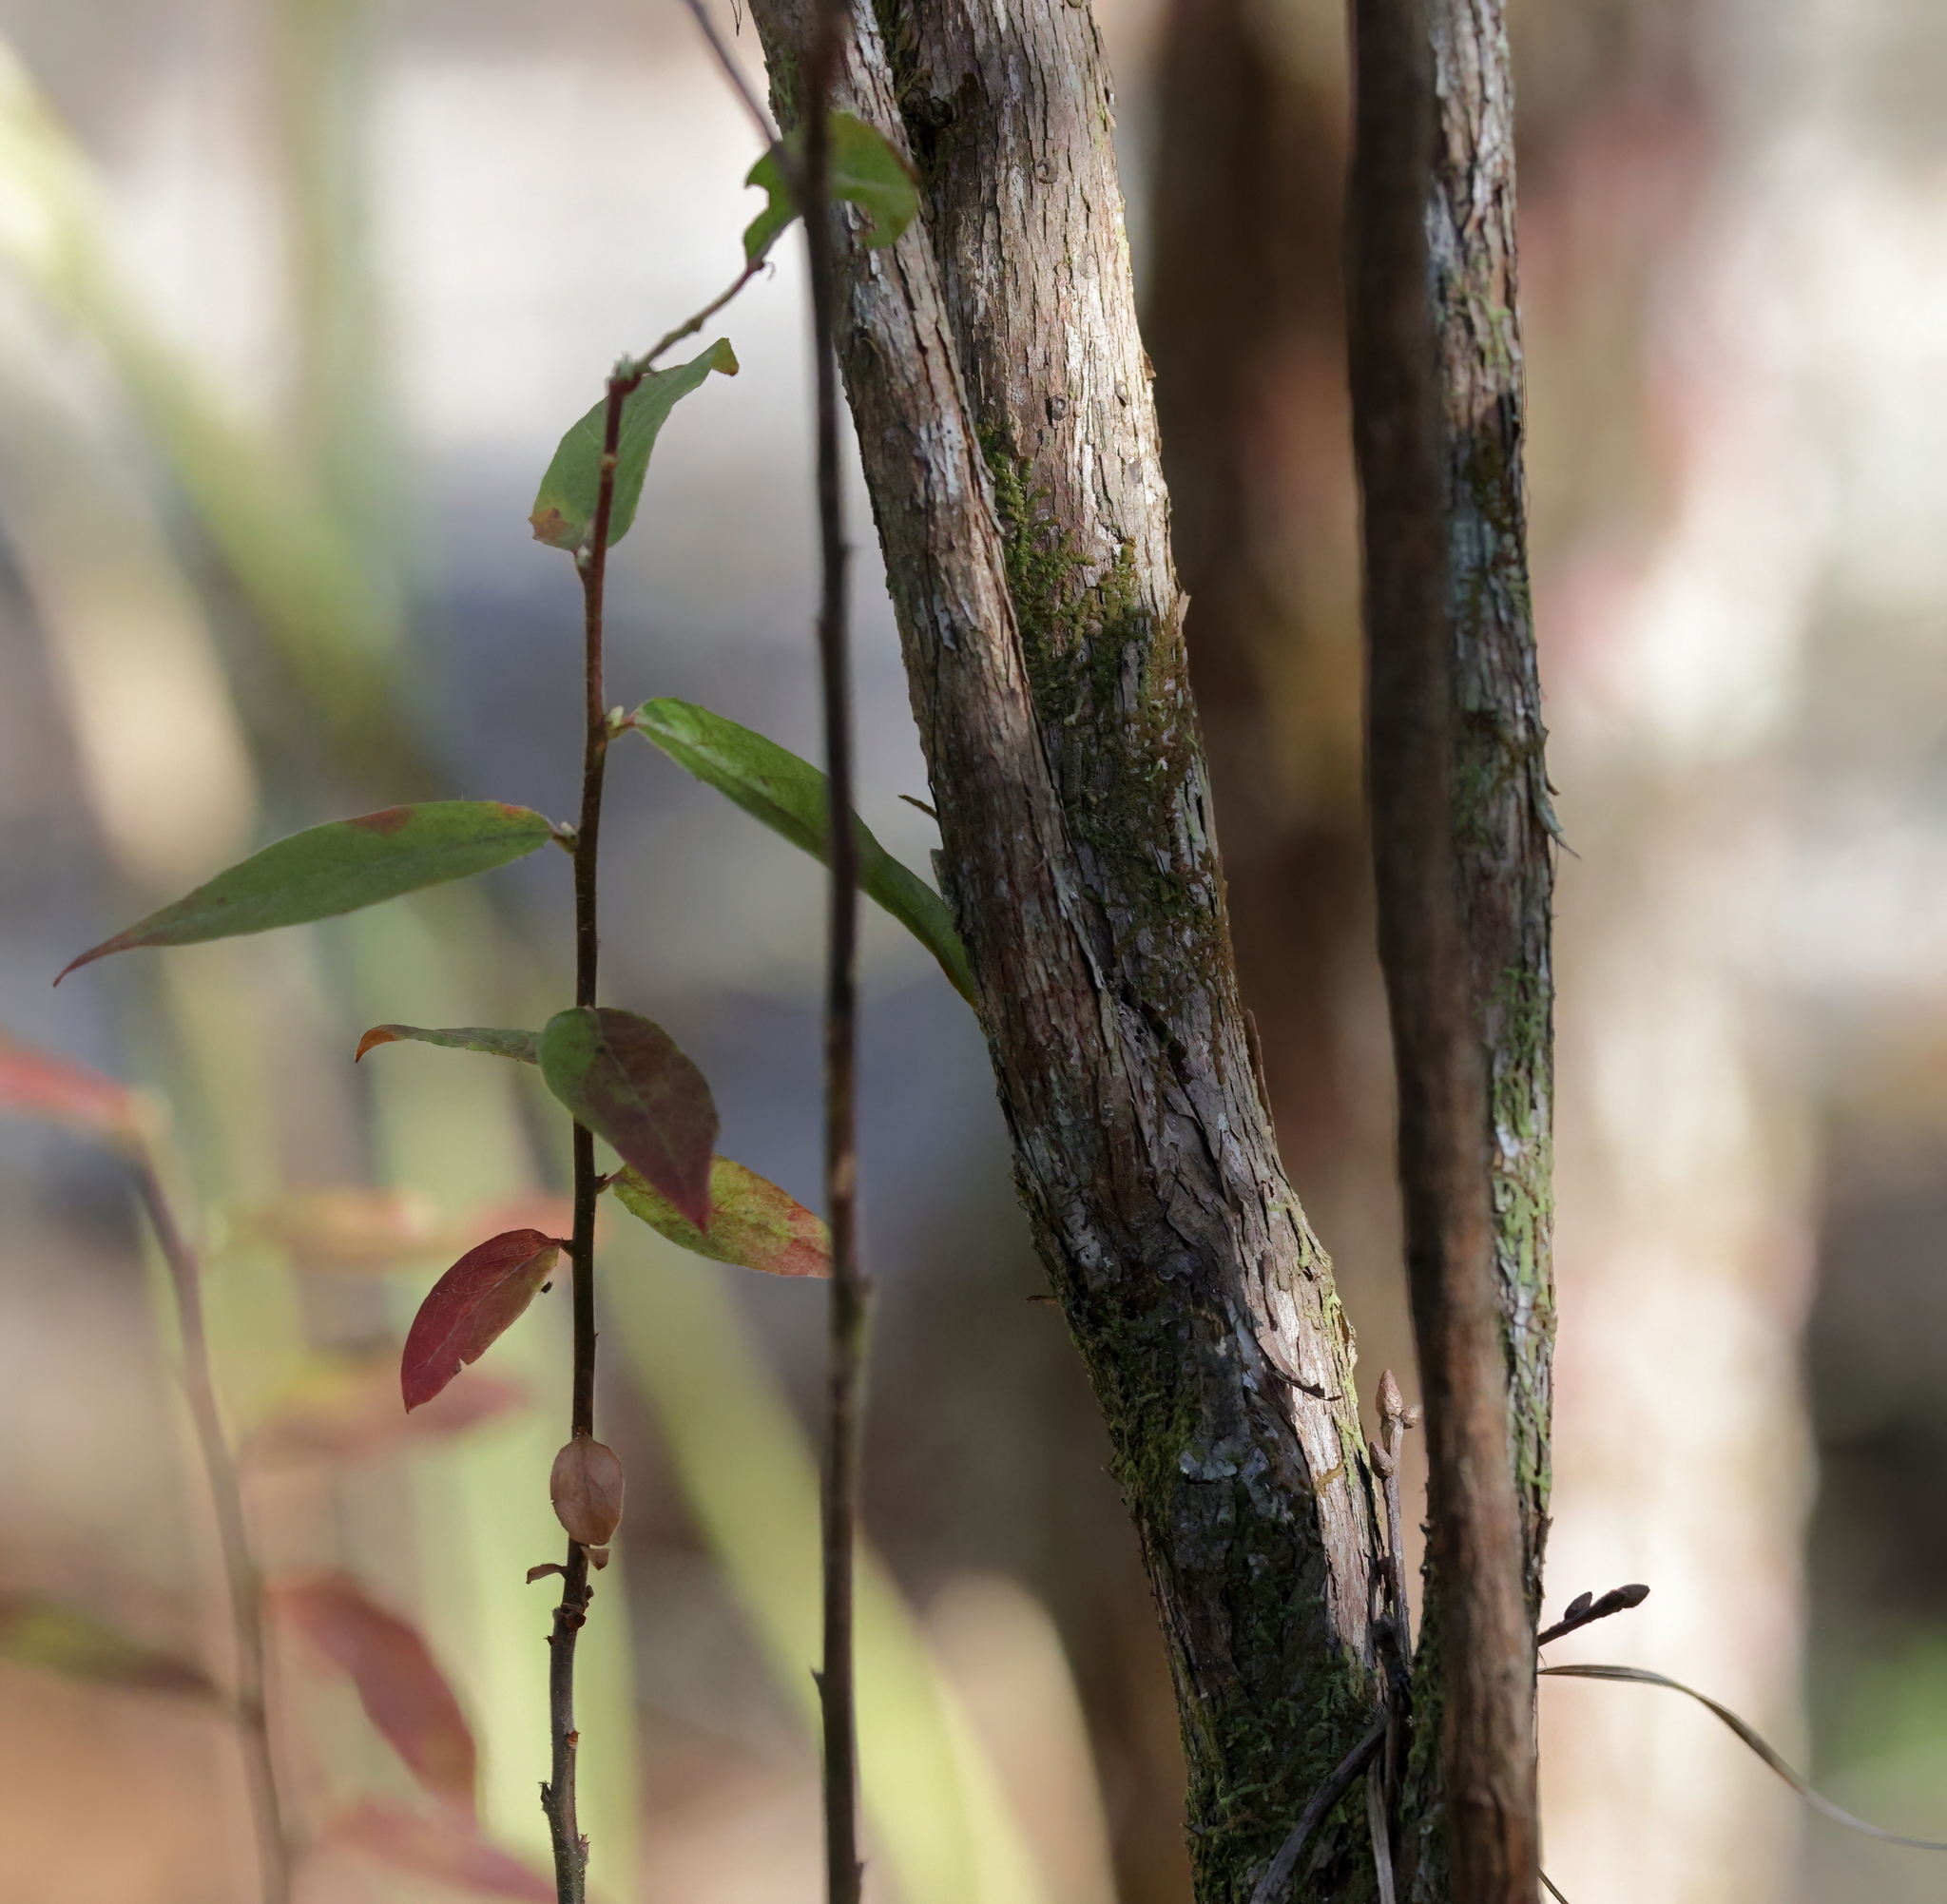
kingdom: Plantae
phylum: Tracheophyta
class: Magnoliopsida
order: Ericales
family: Ericaceae
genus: Vaccinium
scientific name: Vaccinium stamineum
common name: Deerberry
